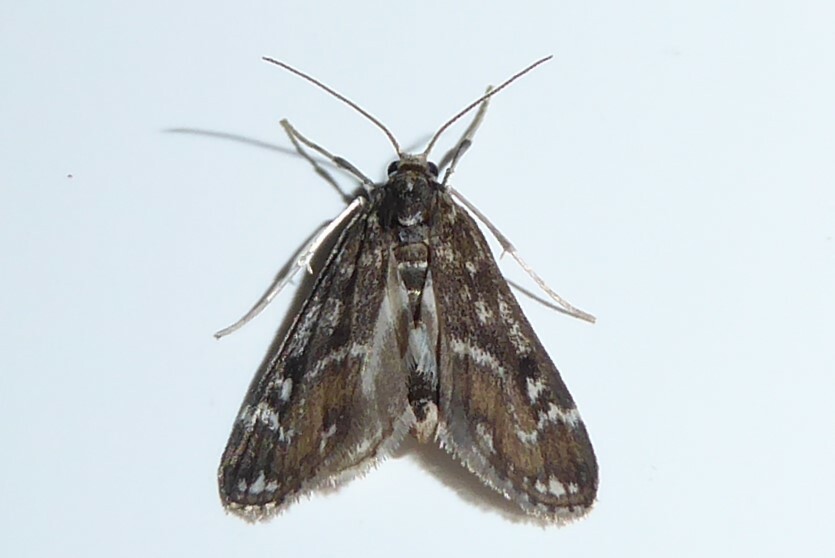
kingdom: Animalia
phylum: Arthropoda
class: Insecta
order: Lepidoptera
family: Crambidae
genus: Hygraula
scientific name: Hygraula nitens
